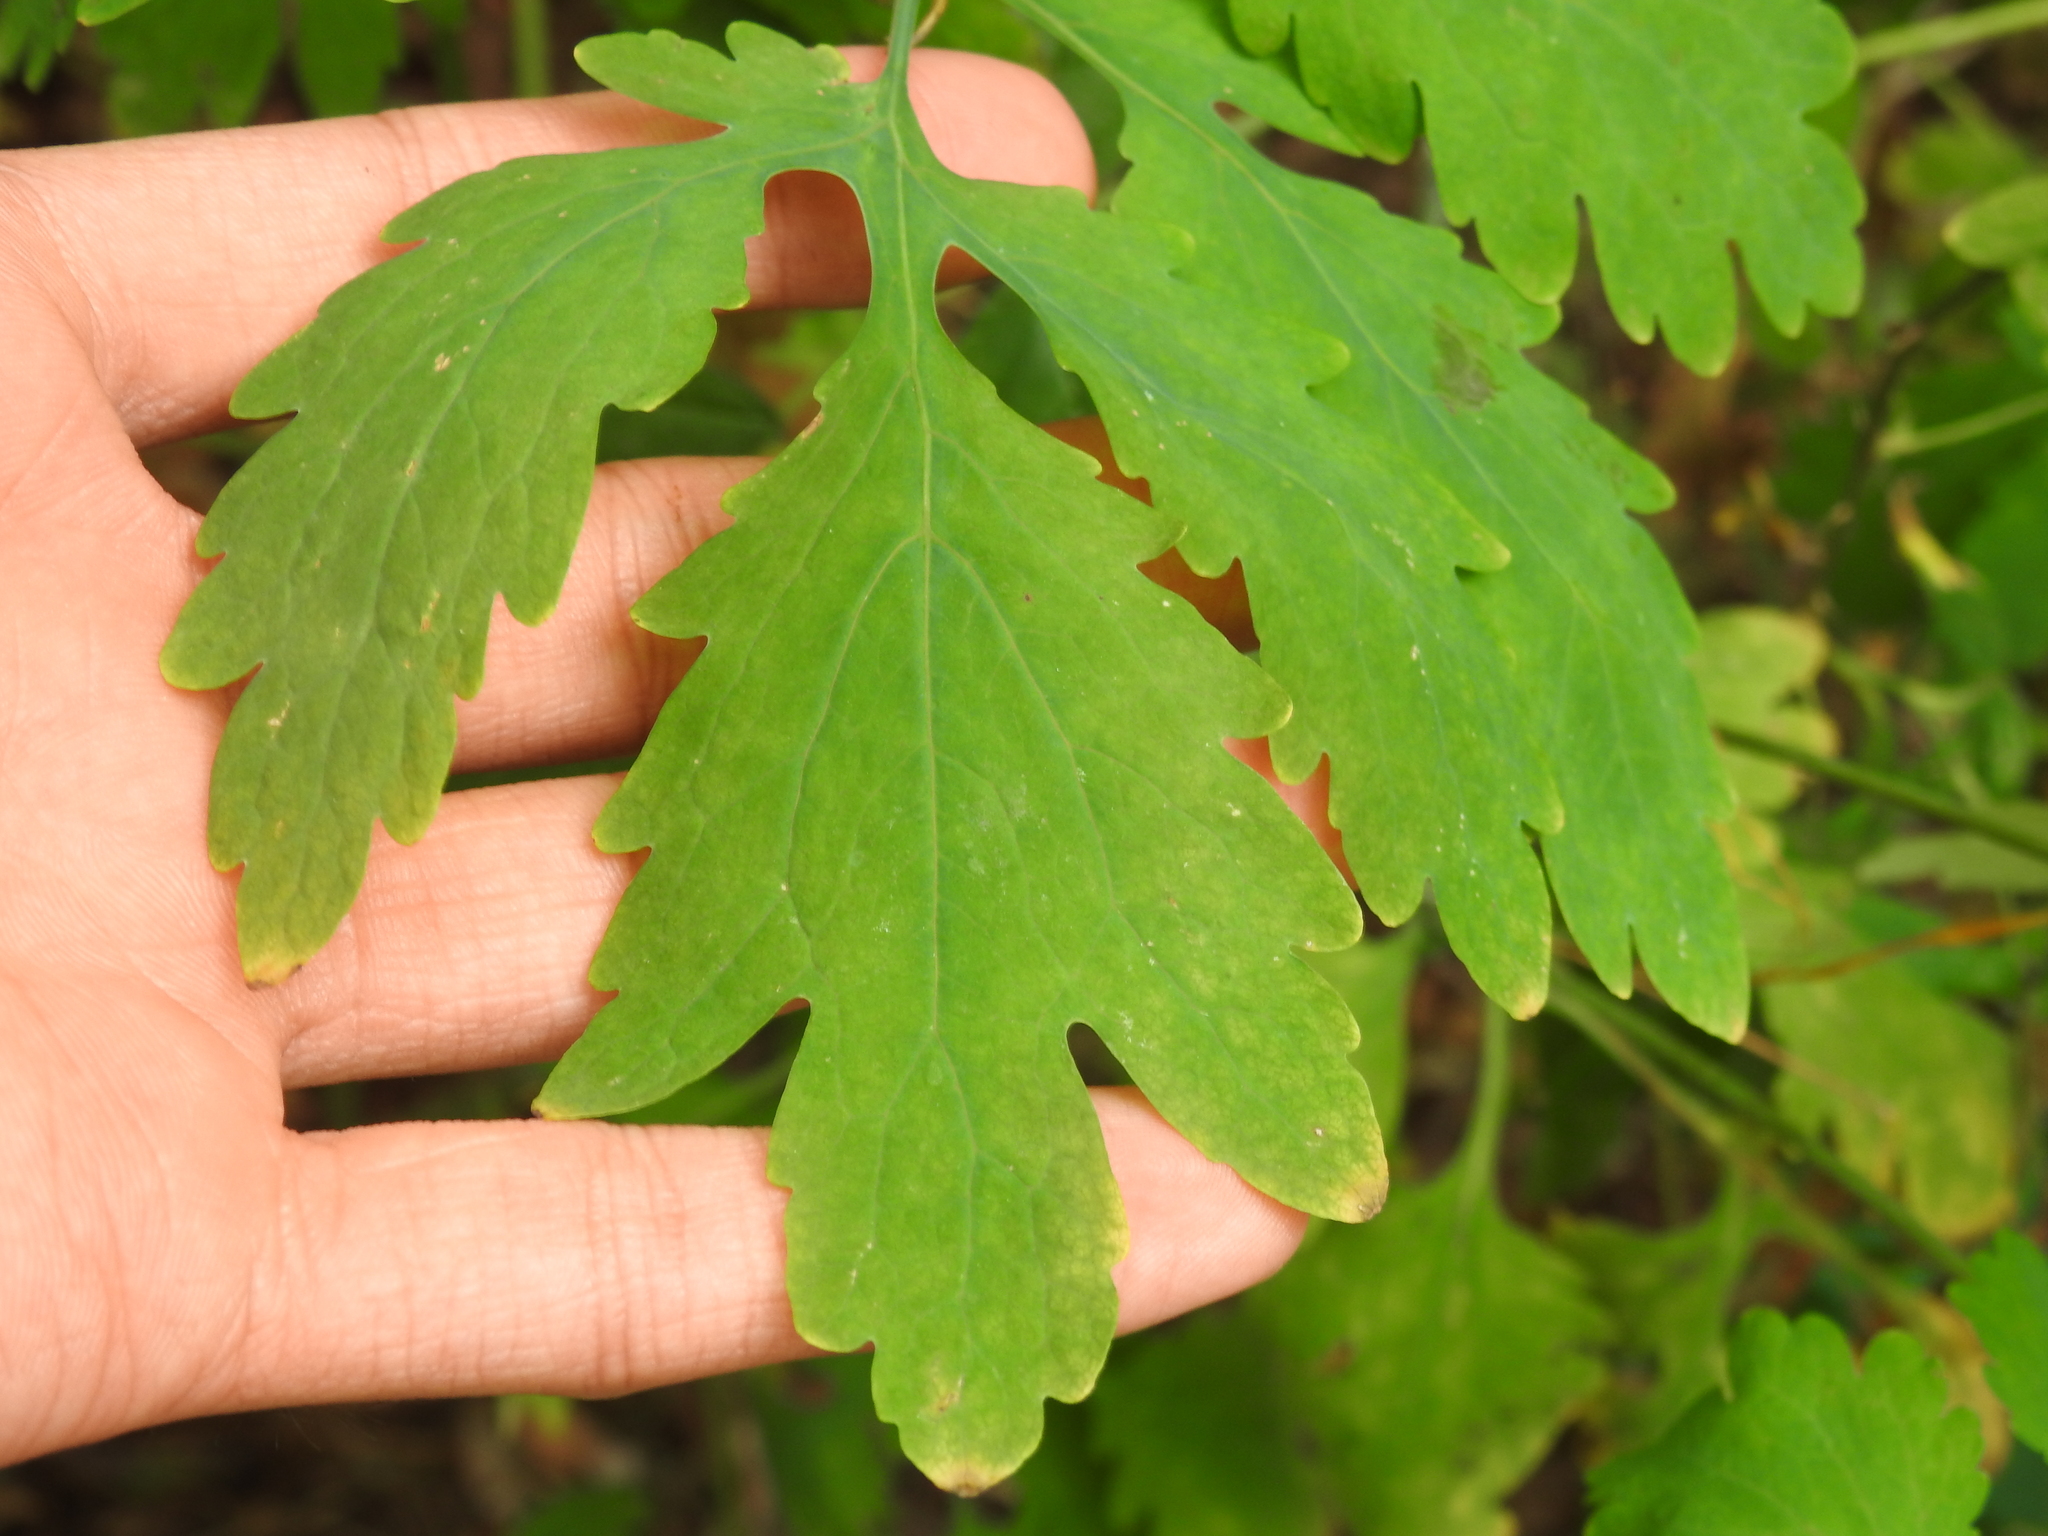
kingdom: Plantae
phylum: Tracheophyta
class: Magnoliopsida
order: Ranunculales
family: Papaveraceae
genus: Chelidonium
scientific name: Chelidonium majus
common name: Greater celandine
